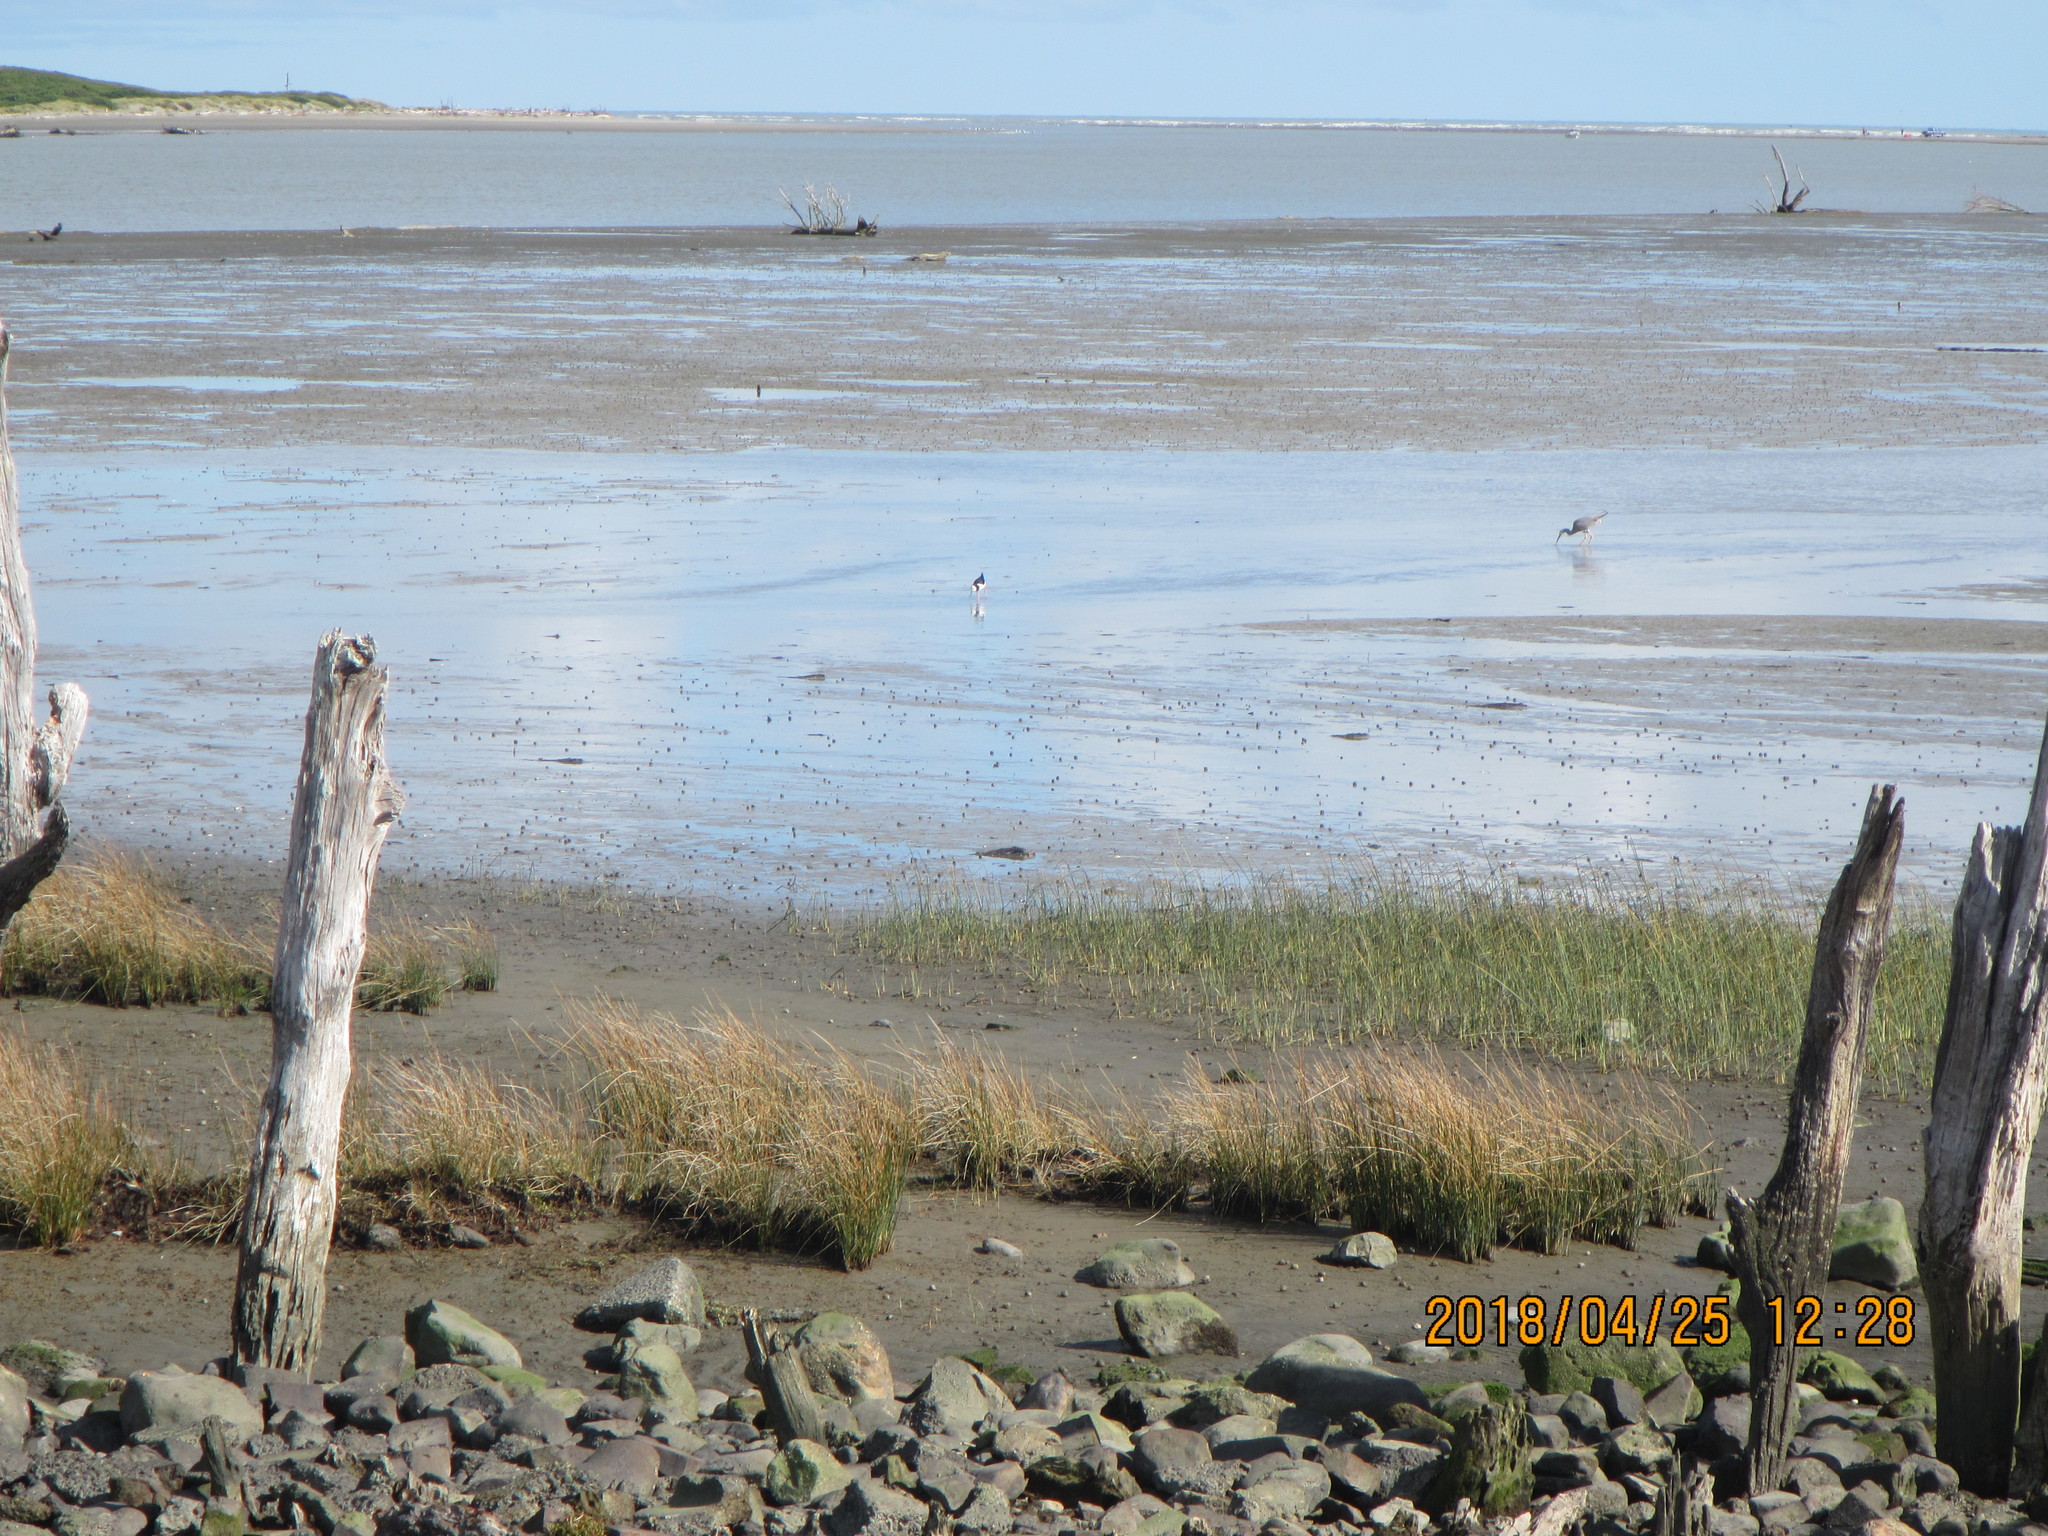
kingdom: Animalia
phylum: Chordata
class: Aves
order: Charadriiformes
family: Recurvirostridae
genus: Himantopus
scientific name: Himantopus leucocephalus
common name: White-headed stilt
